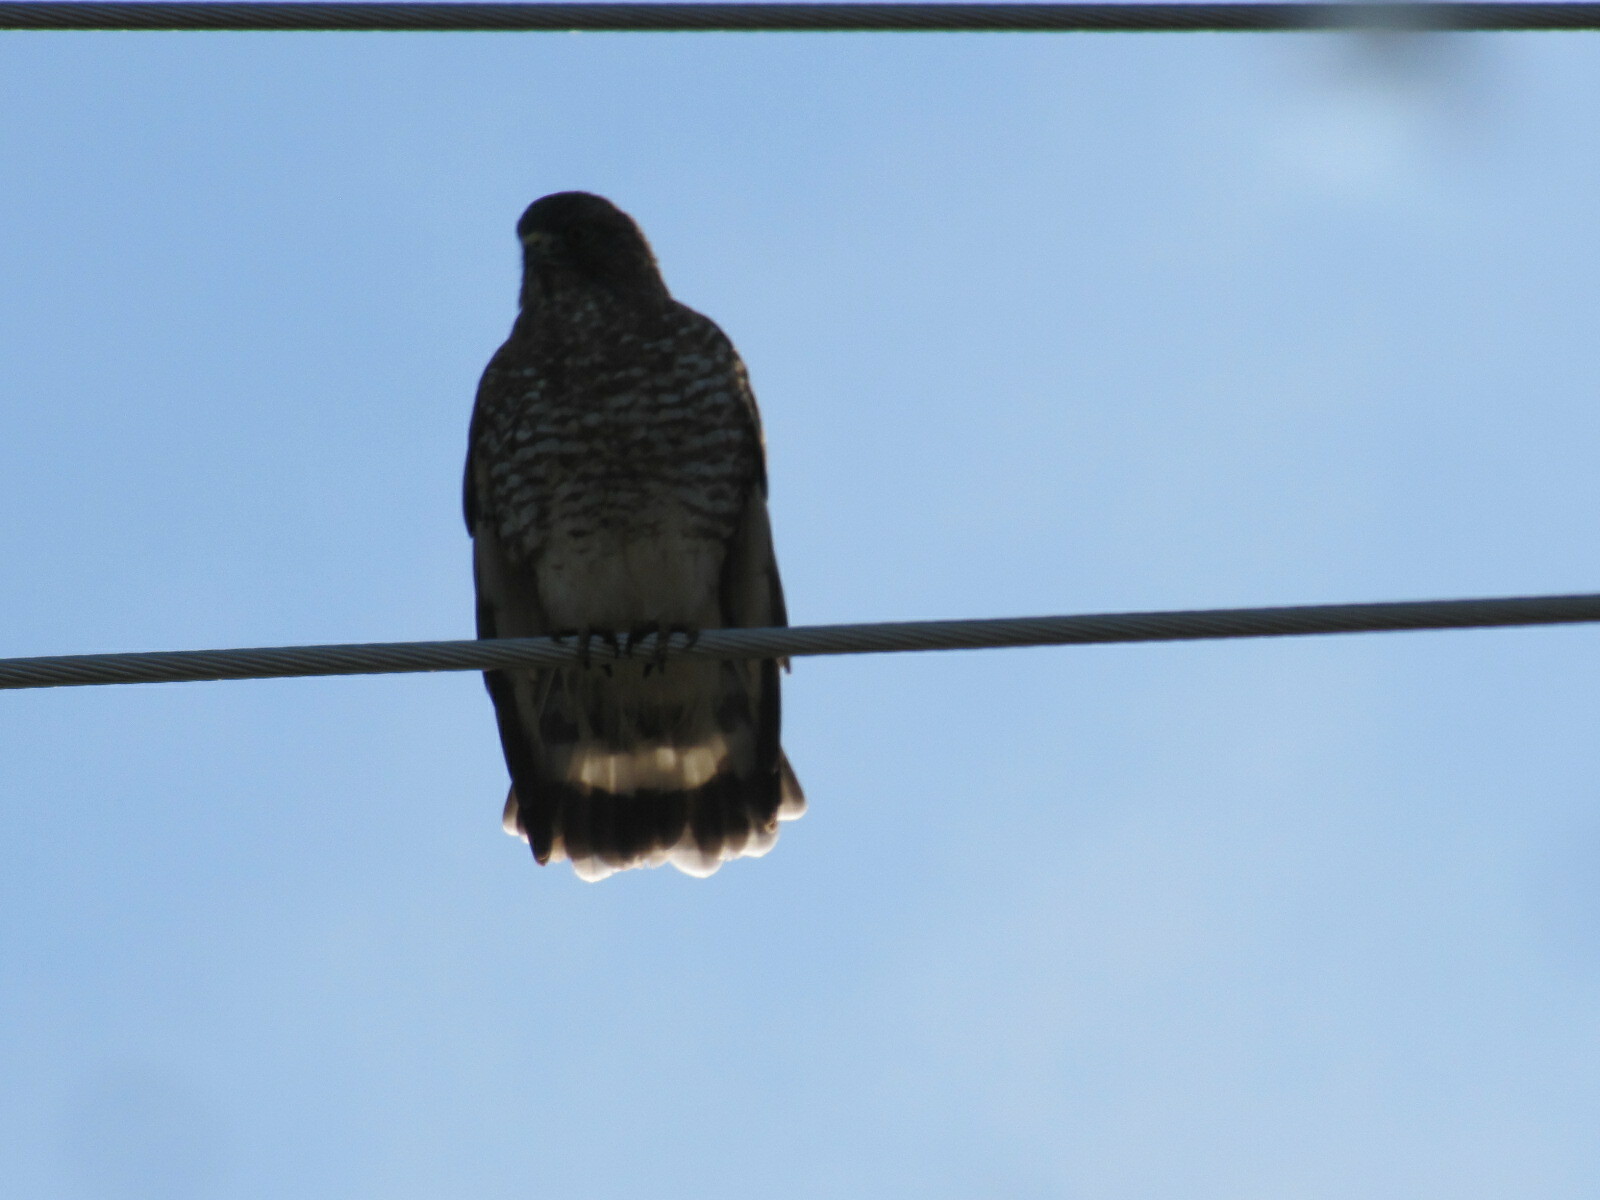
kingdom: Animalia
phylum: Chordata
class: Aves
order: Accipitriformes
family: Accipitridae
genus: Buteo
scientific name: Buteo platypterus
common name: Broad-winged hawk
